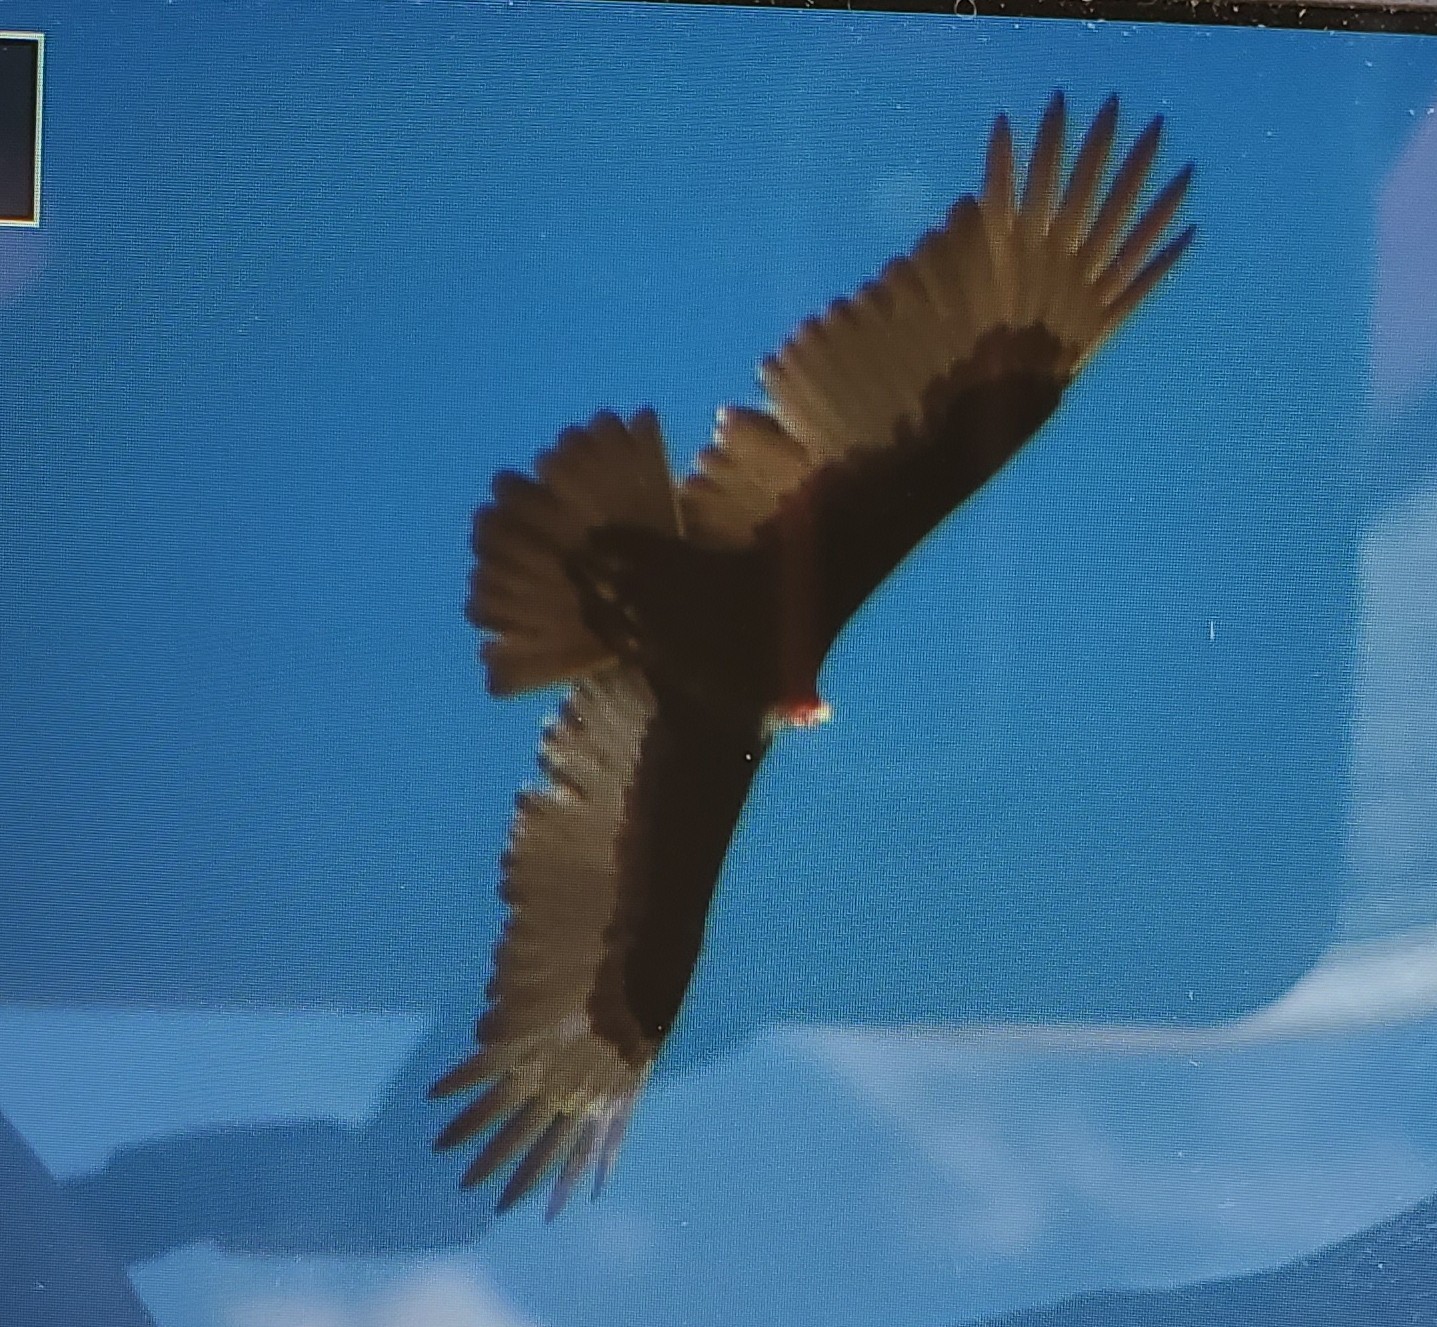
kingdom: Animalia
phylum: Chordata
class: Aves
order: Accipitriformes
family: Cathartidae
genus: Cathartes
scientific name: Cathartes aura
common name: Turkey vulture
